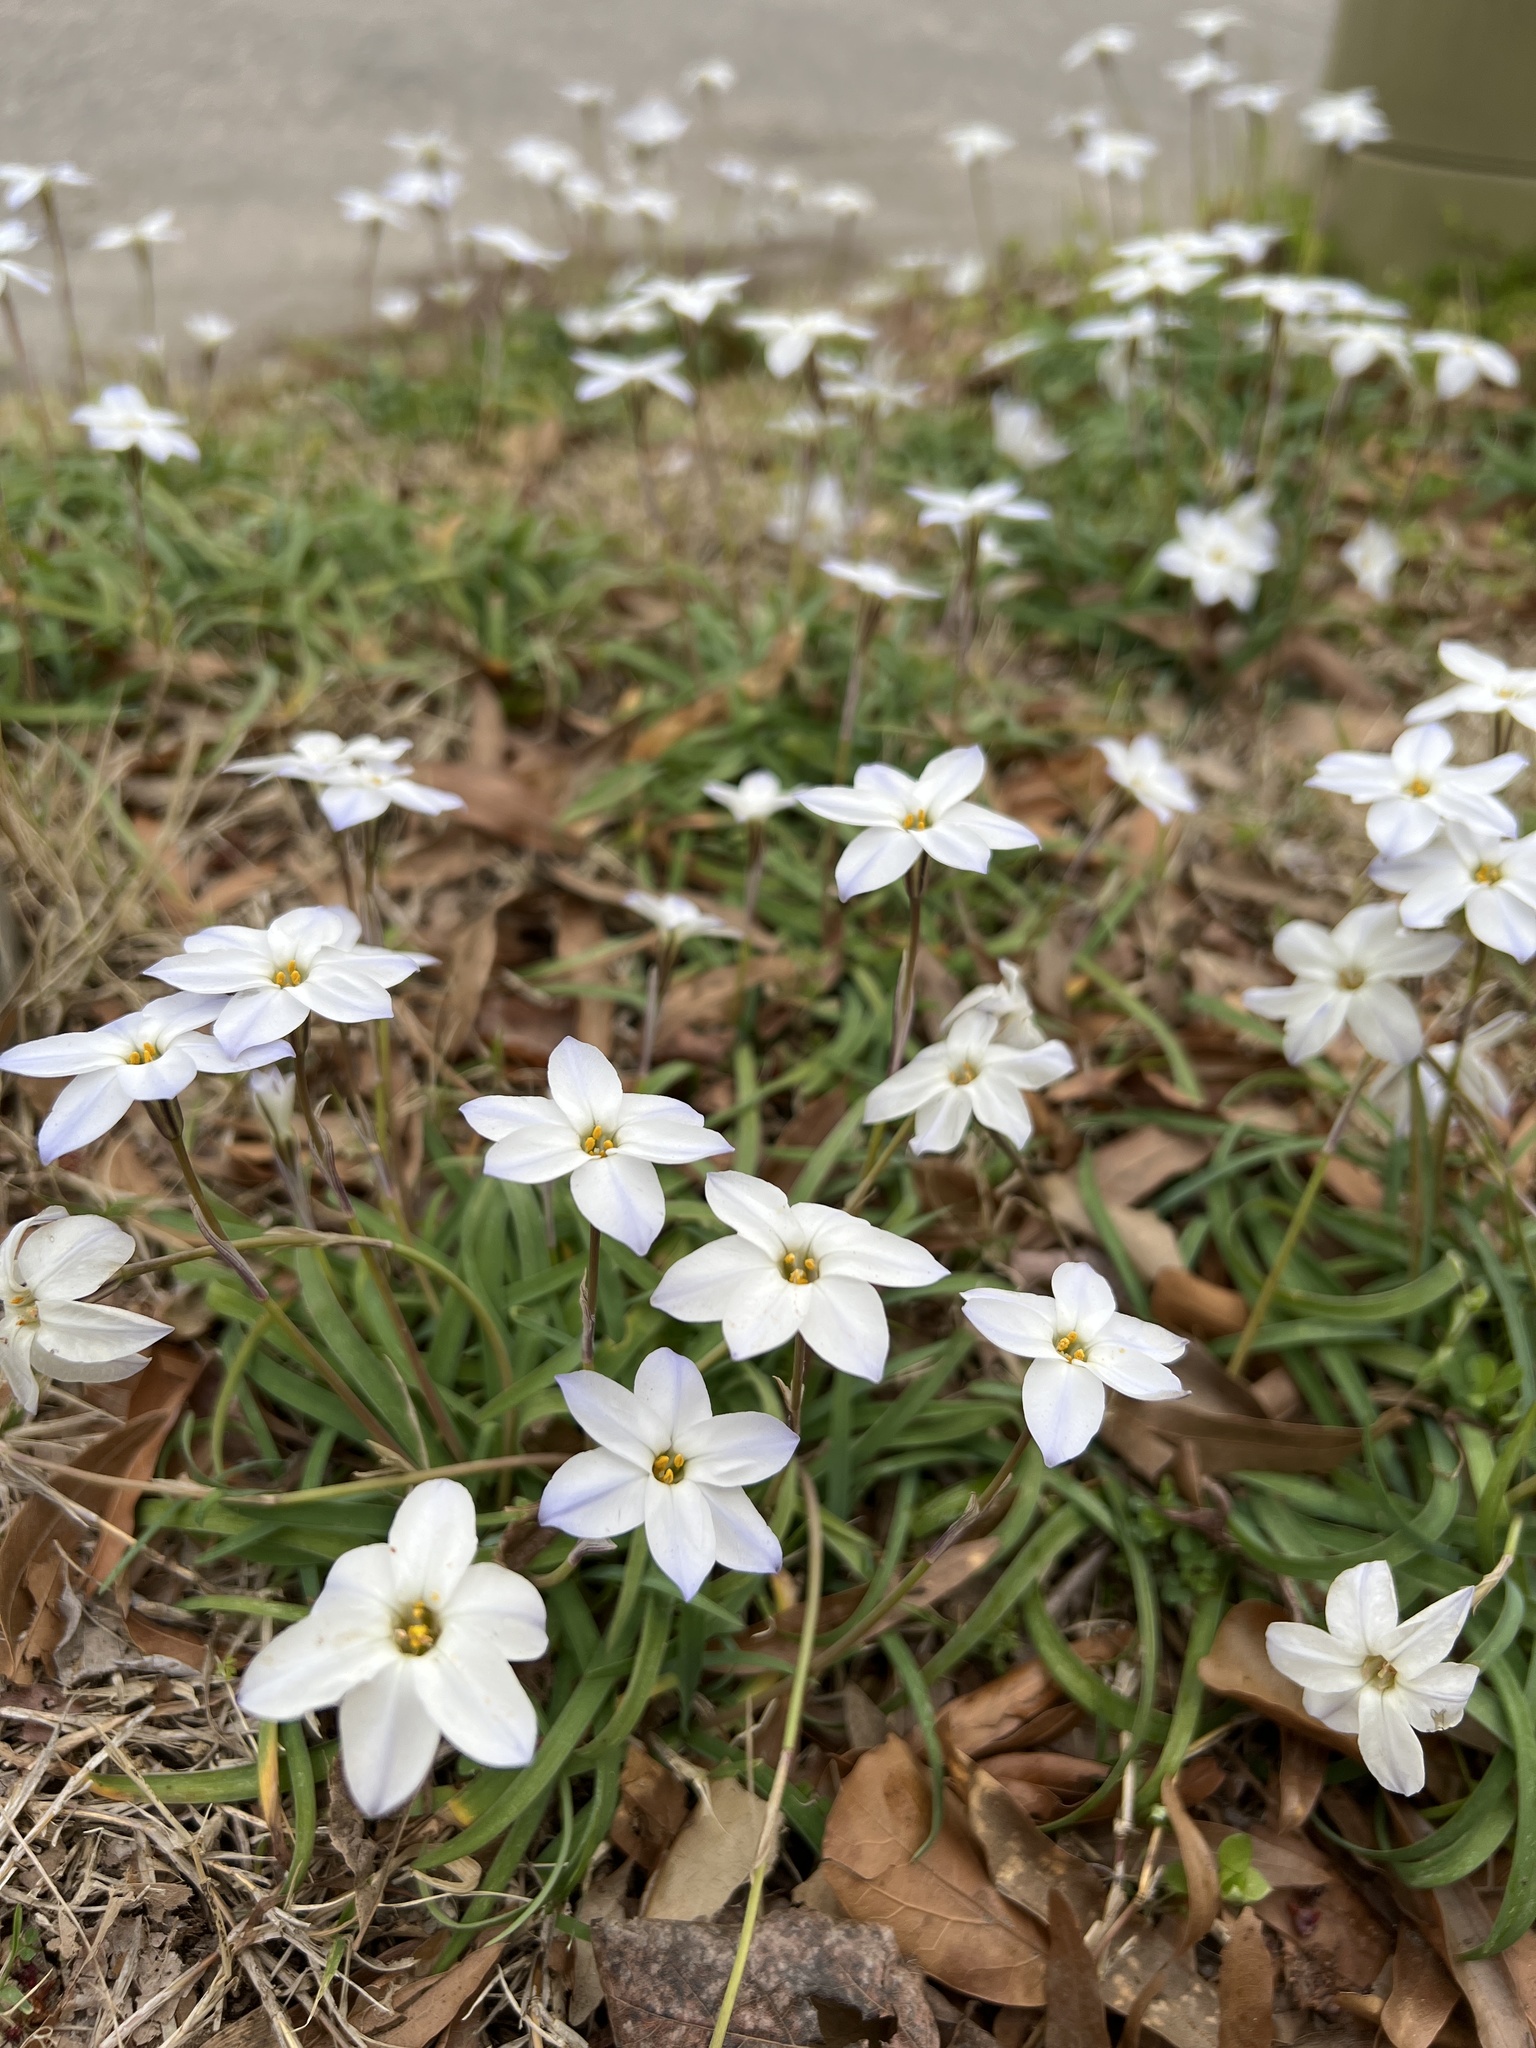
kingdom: Plantae
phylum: Tracheophyta
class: Liliopsida
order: Asparagales
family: Amaryllidaceae
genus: Ipheion
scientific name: Ipheion uniflorum
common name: Spring starflower
